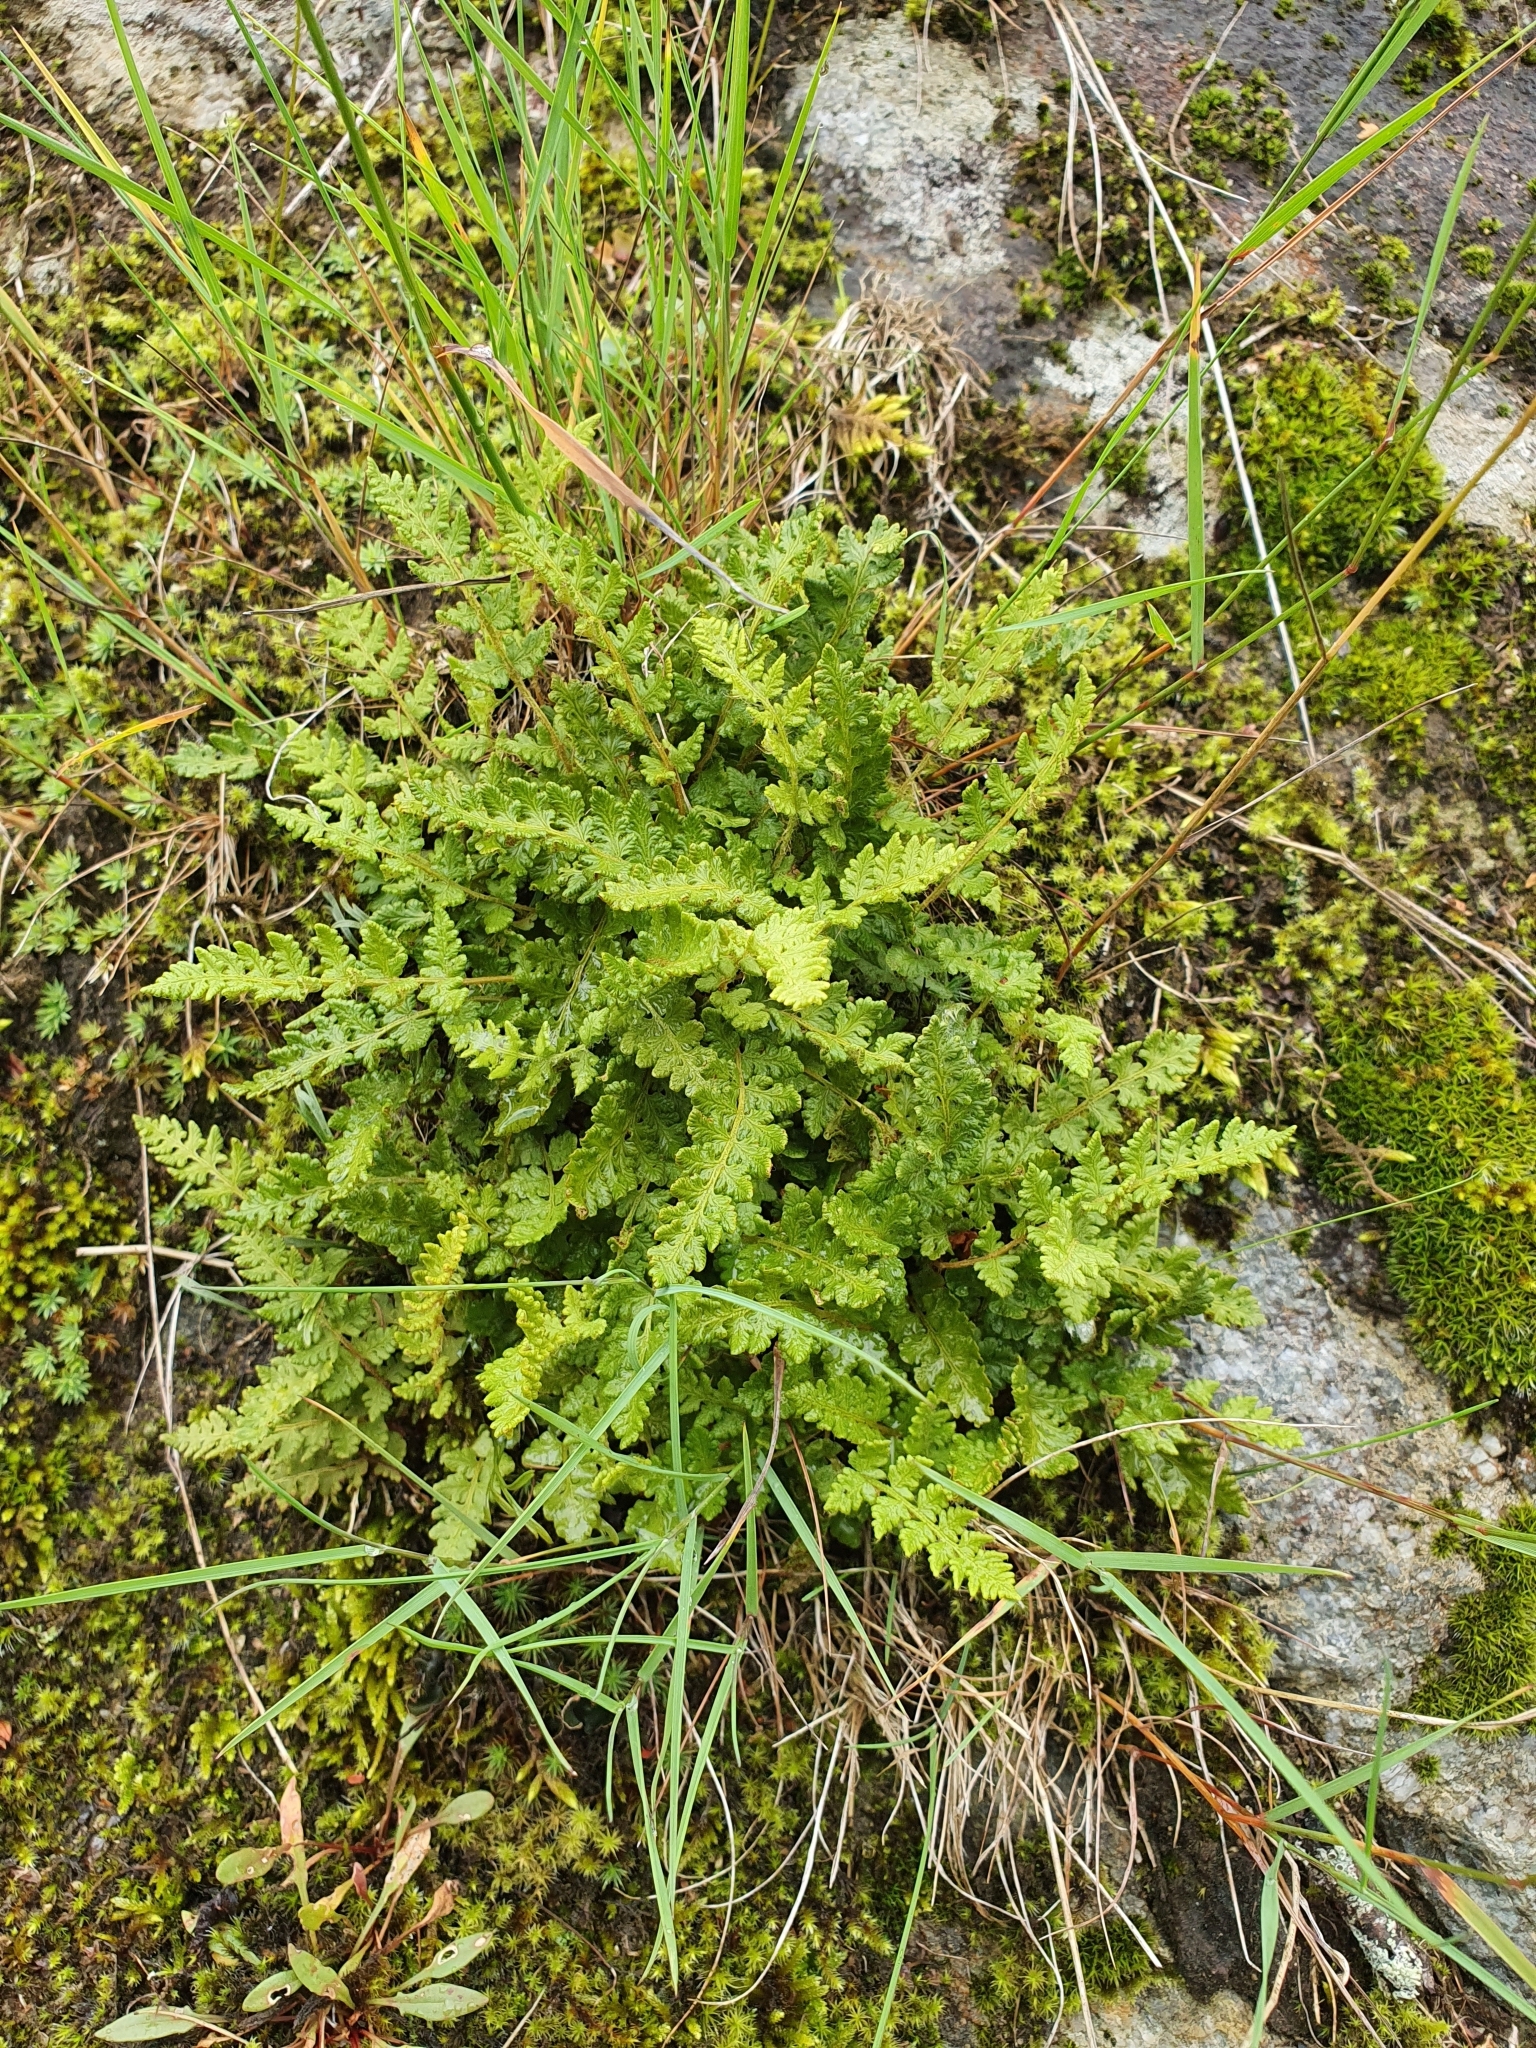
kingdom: Plantae
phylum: Tracheophyta
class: Polypodiopsida
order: Polypodiales
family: Woodsiaceae
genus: Woodsia
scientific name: Woodsia alpina
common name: Alpine woodsia
